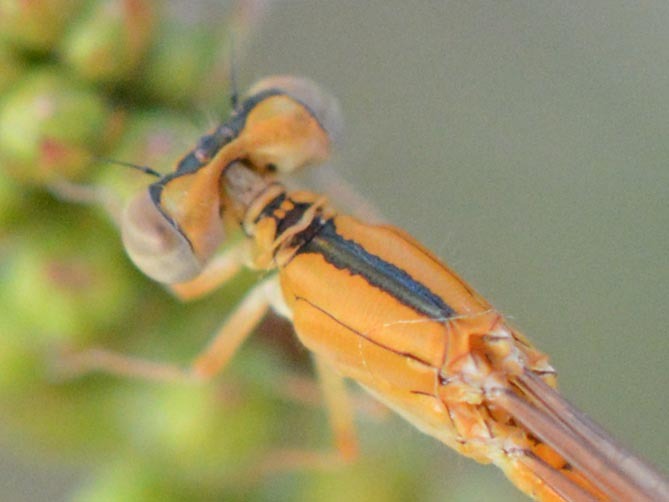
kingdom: Animalia
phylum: Arthropoda
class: Insecta
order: Odonata
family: Coenagrionidae
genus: Ischnura
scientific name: Ischnura pumilio
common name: Scarce blue-tailed damselfly
